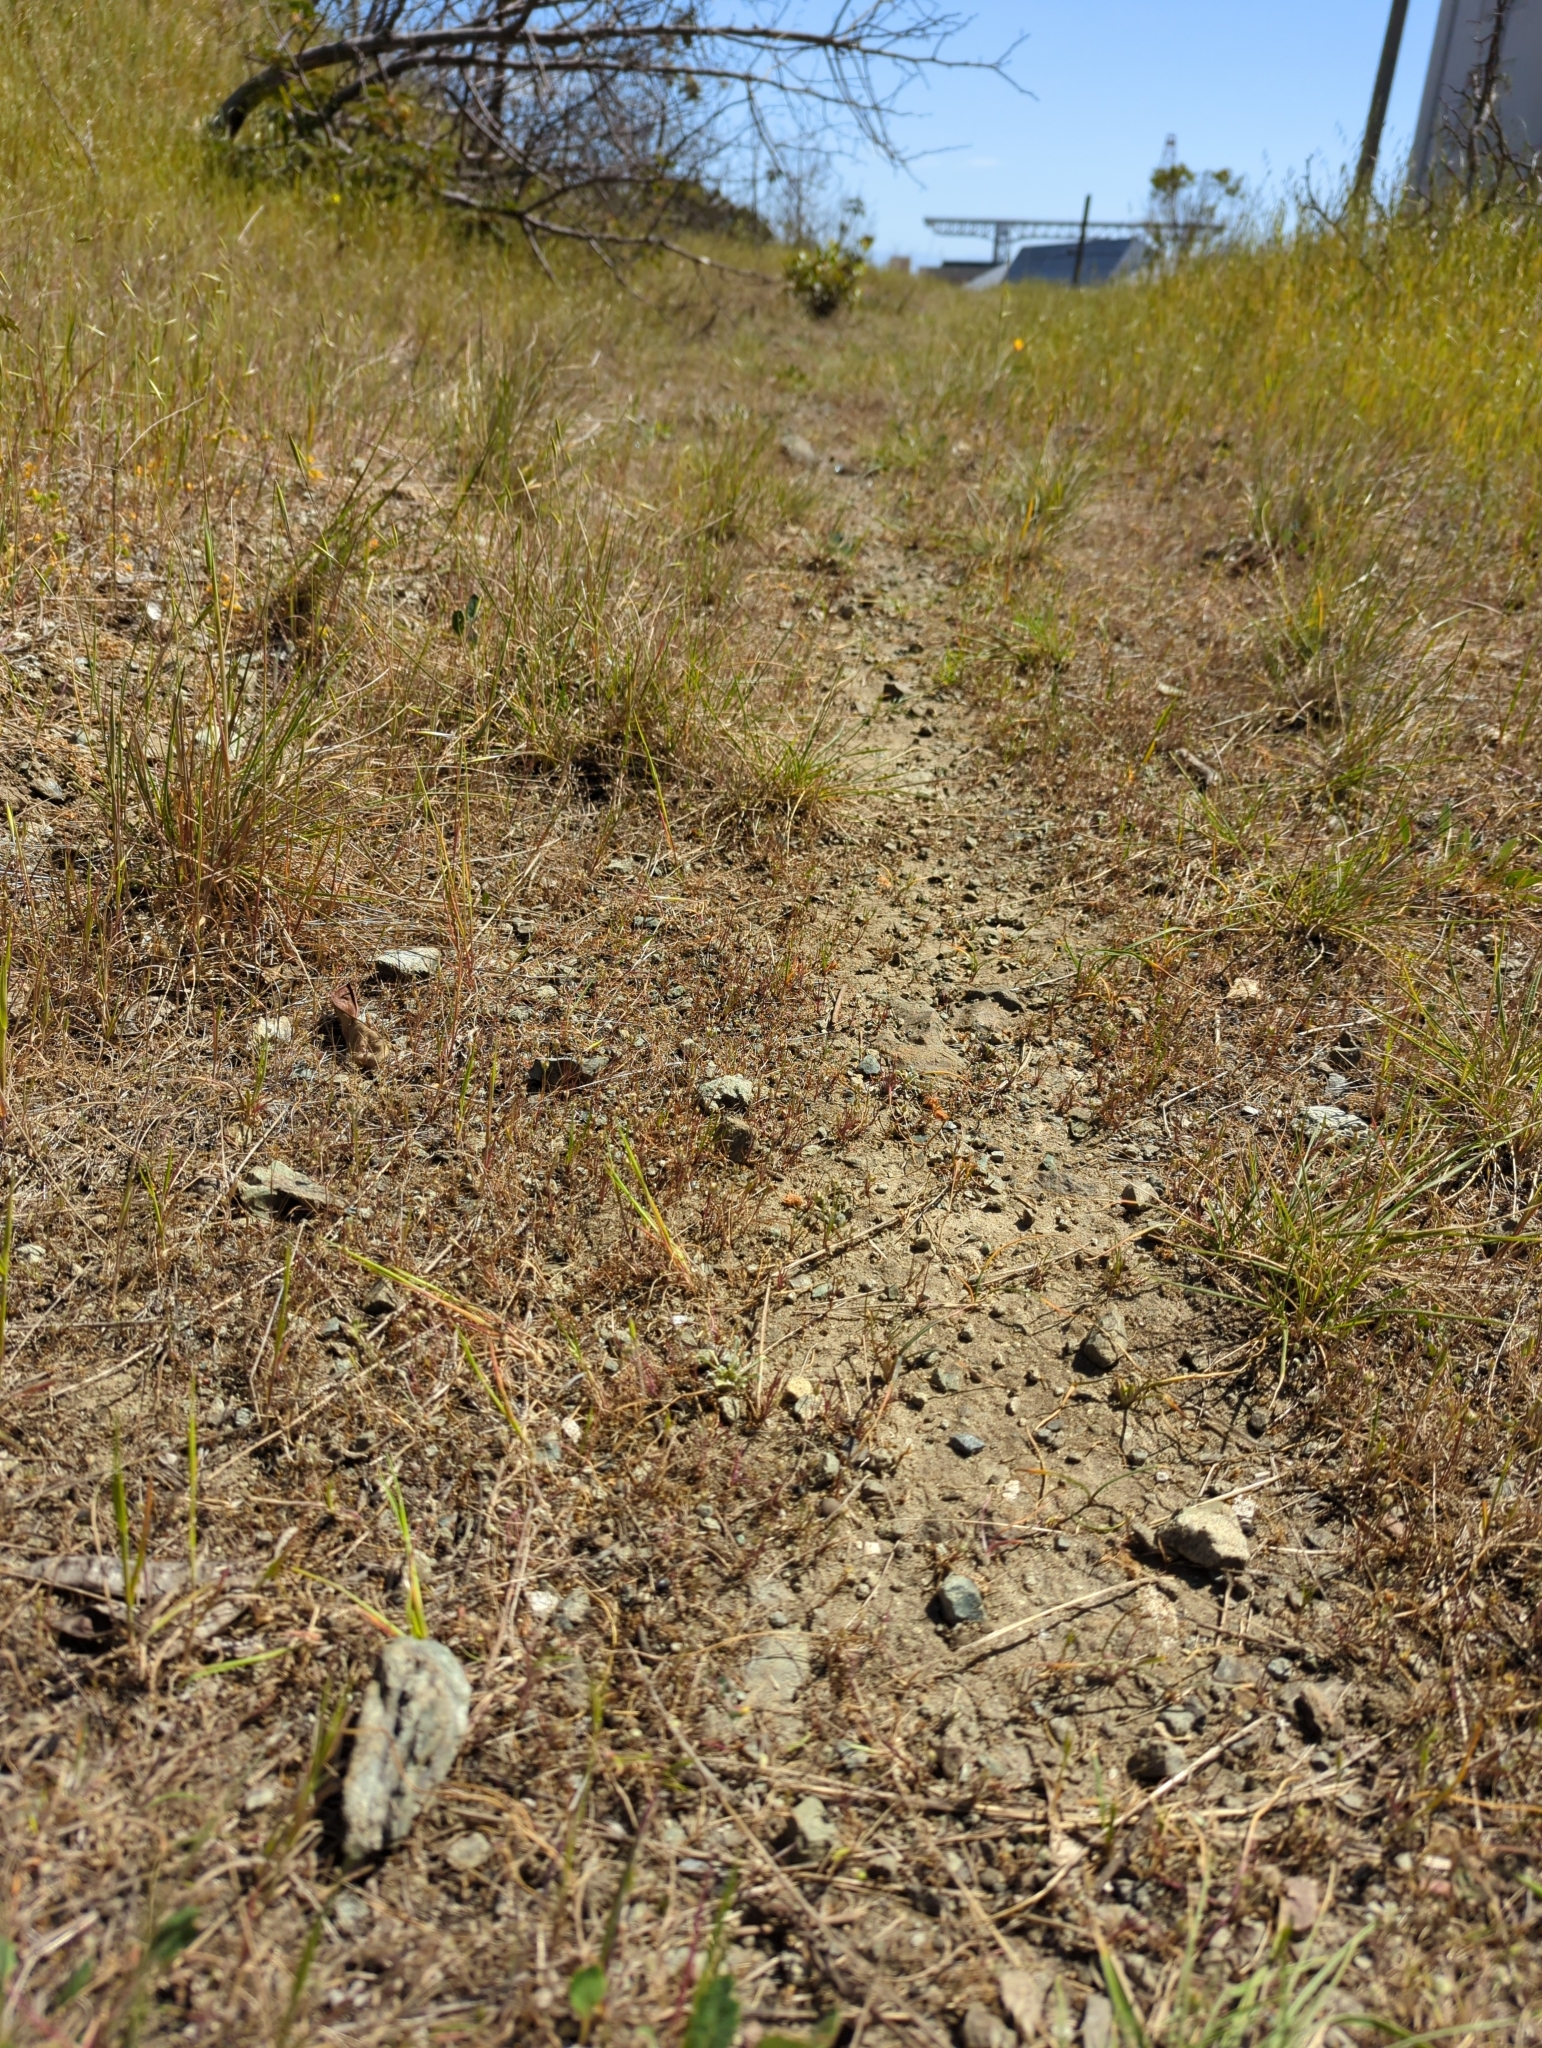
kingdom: Plantae
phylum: Tracheophyta
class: Magnoliopsida
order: Asterales
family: Asteraceae
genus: Hesperevax
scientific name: Hesperevax sparsiflora
